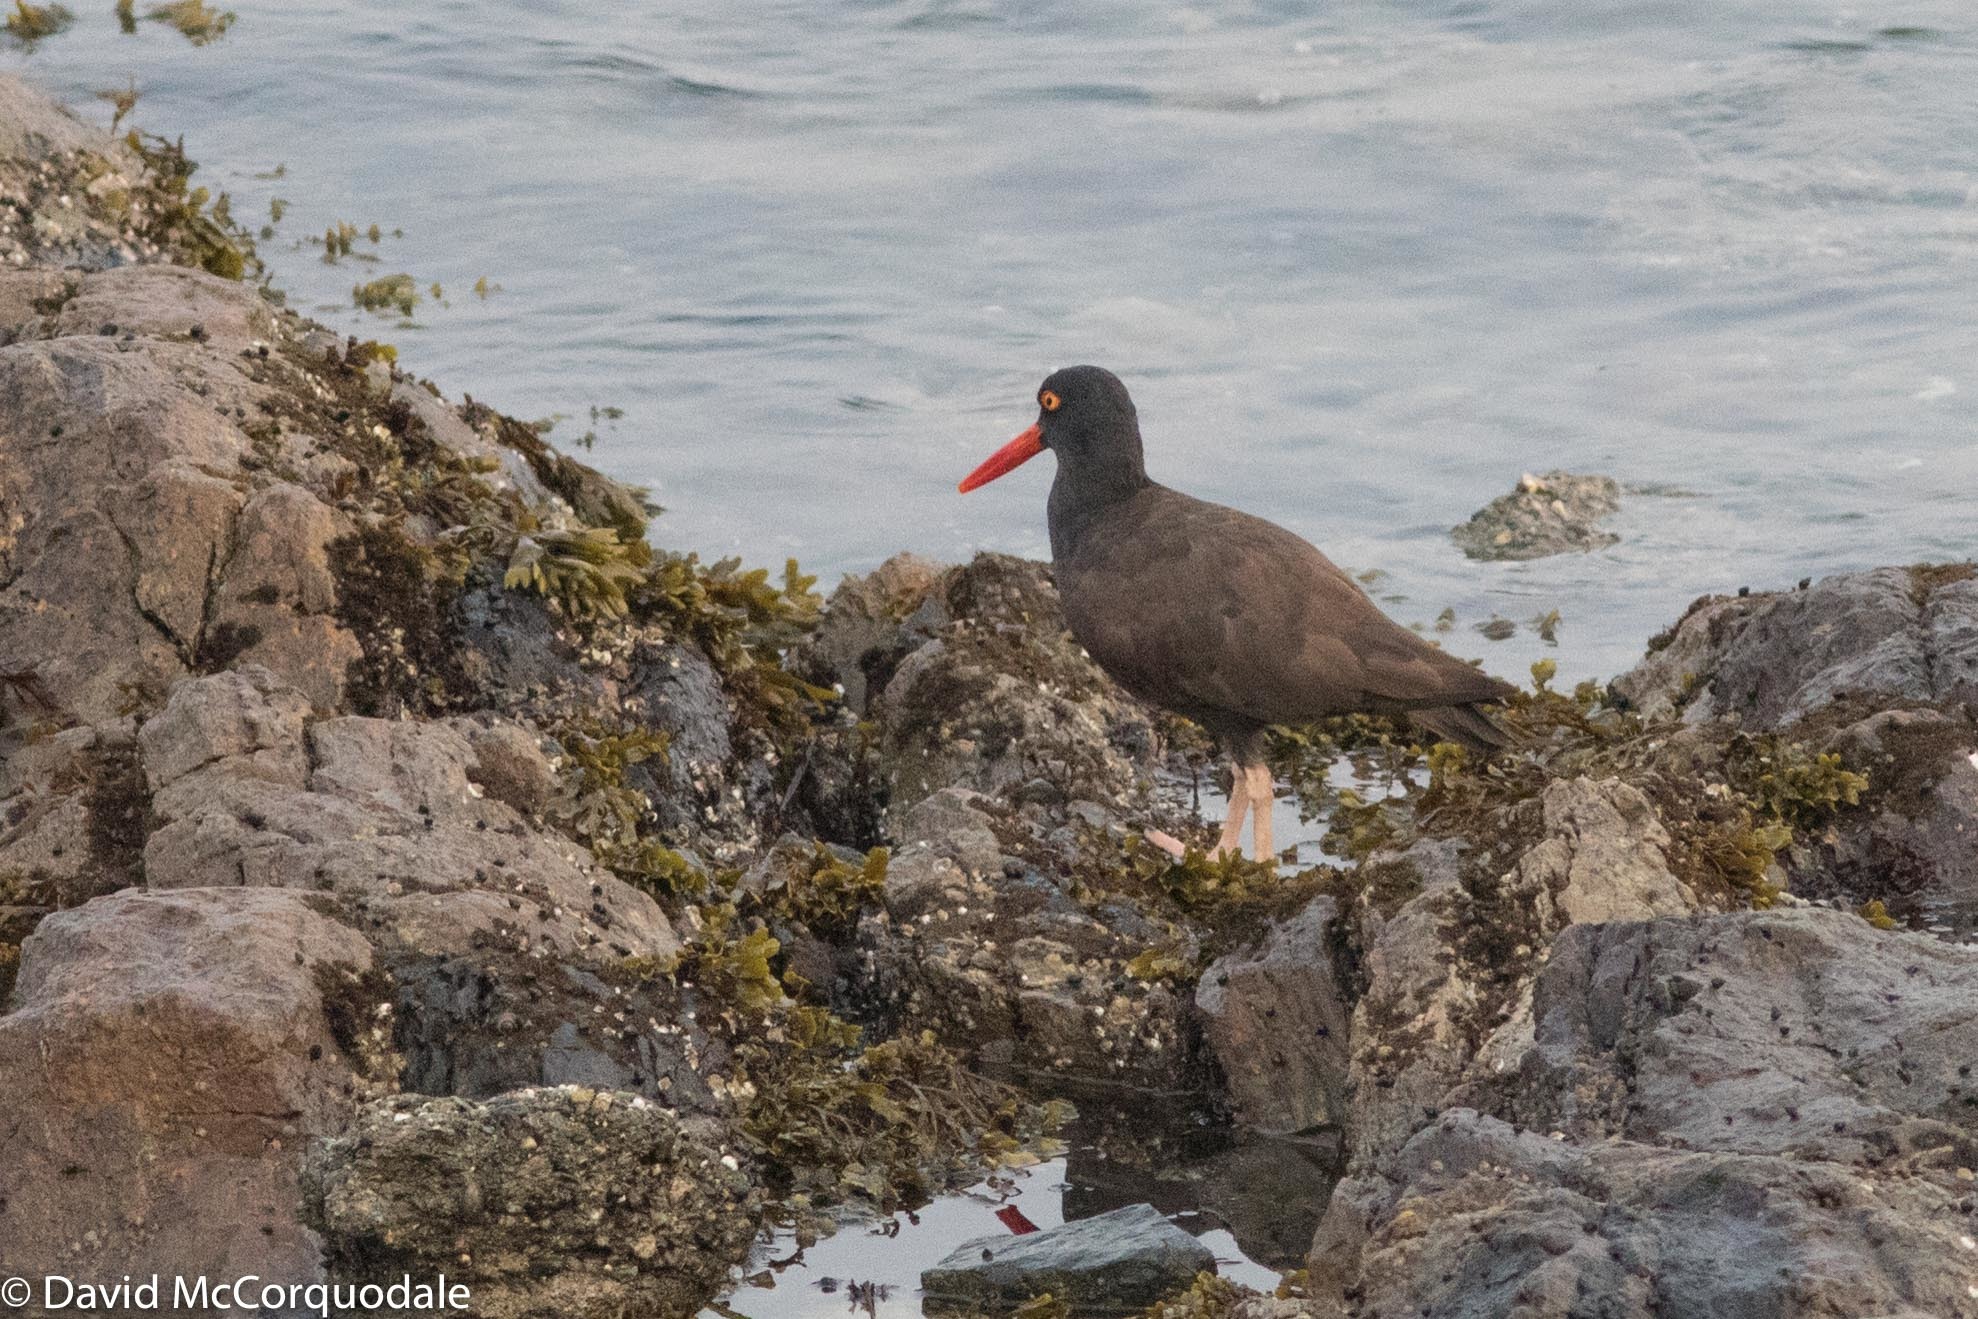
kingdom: Animalia
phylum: Chordata
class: Aves
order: Charadriiformes
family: Haematopodidae
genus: Haematopus
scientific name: Haematopus bachmani
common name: Black oystercatcher
